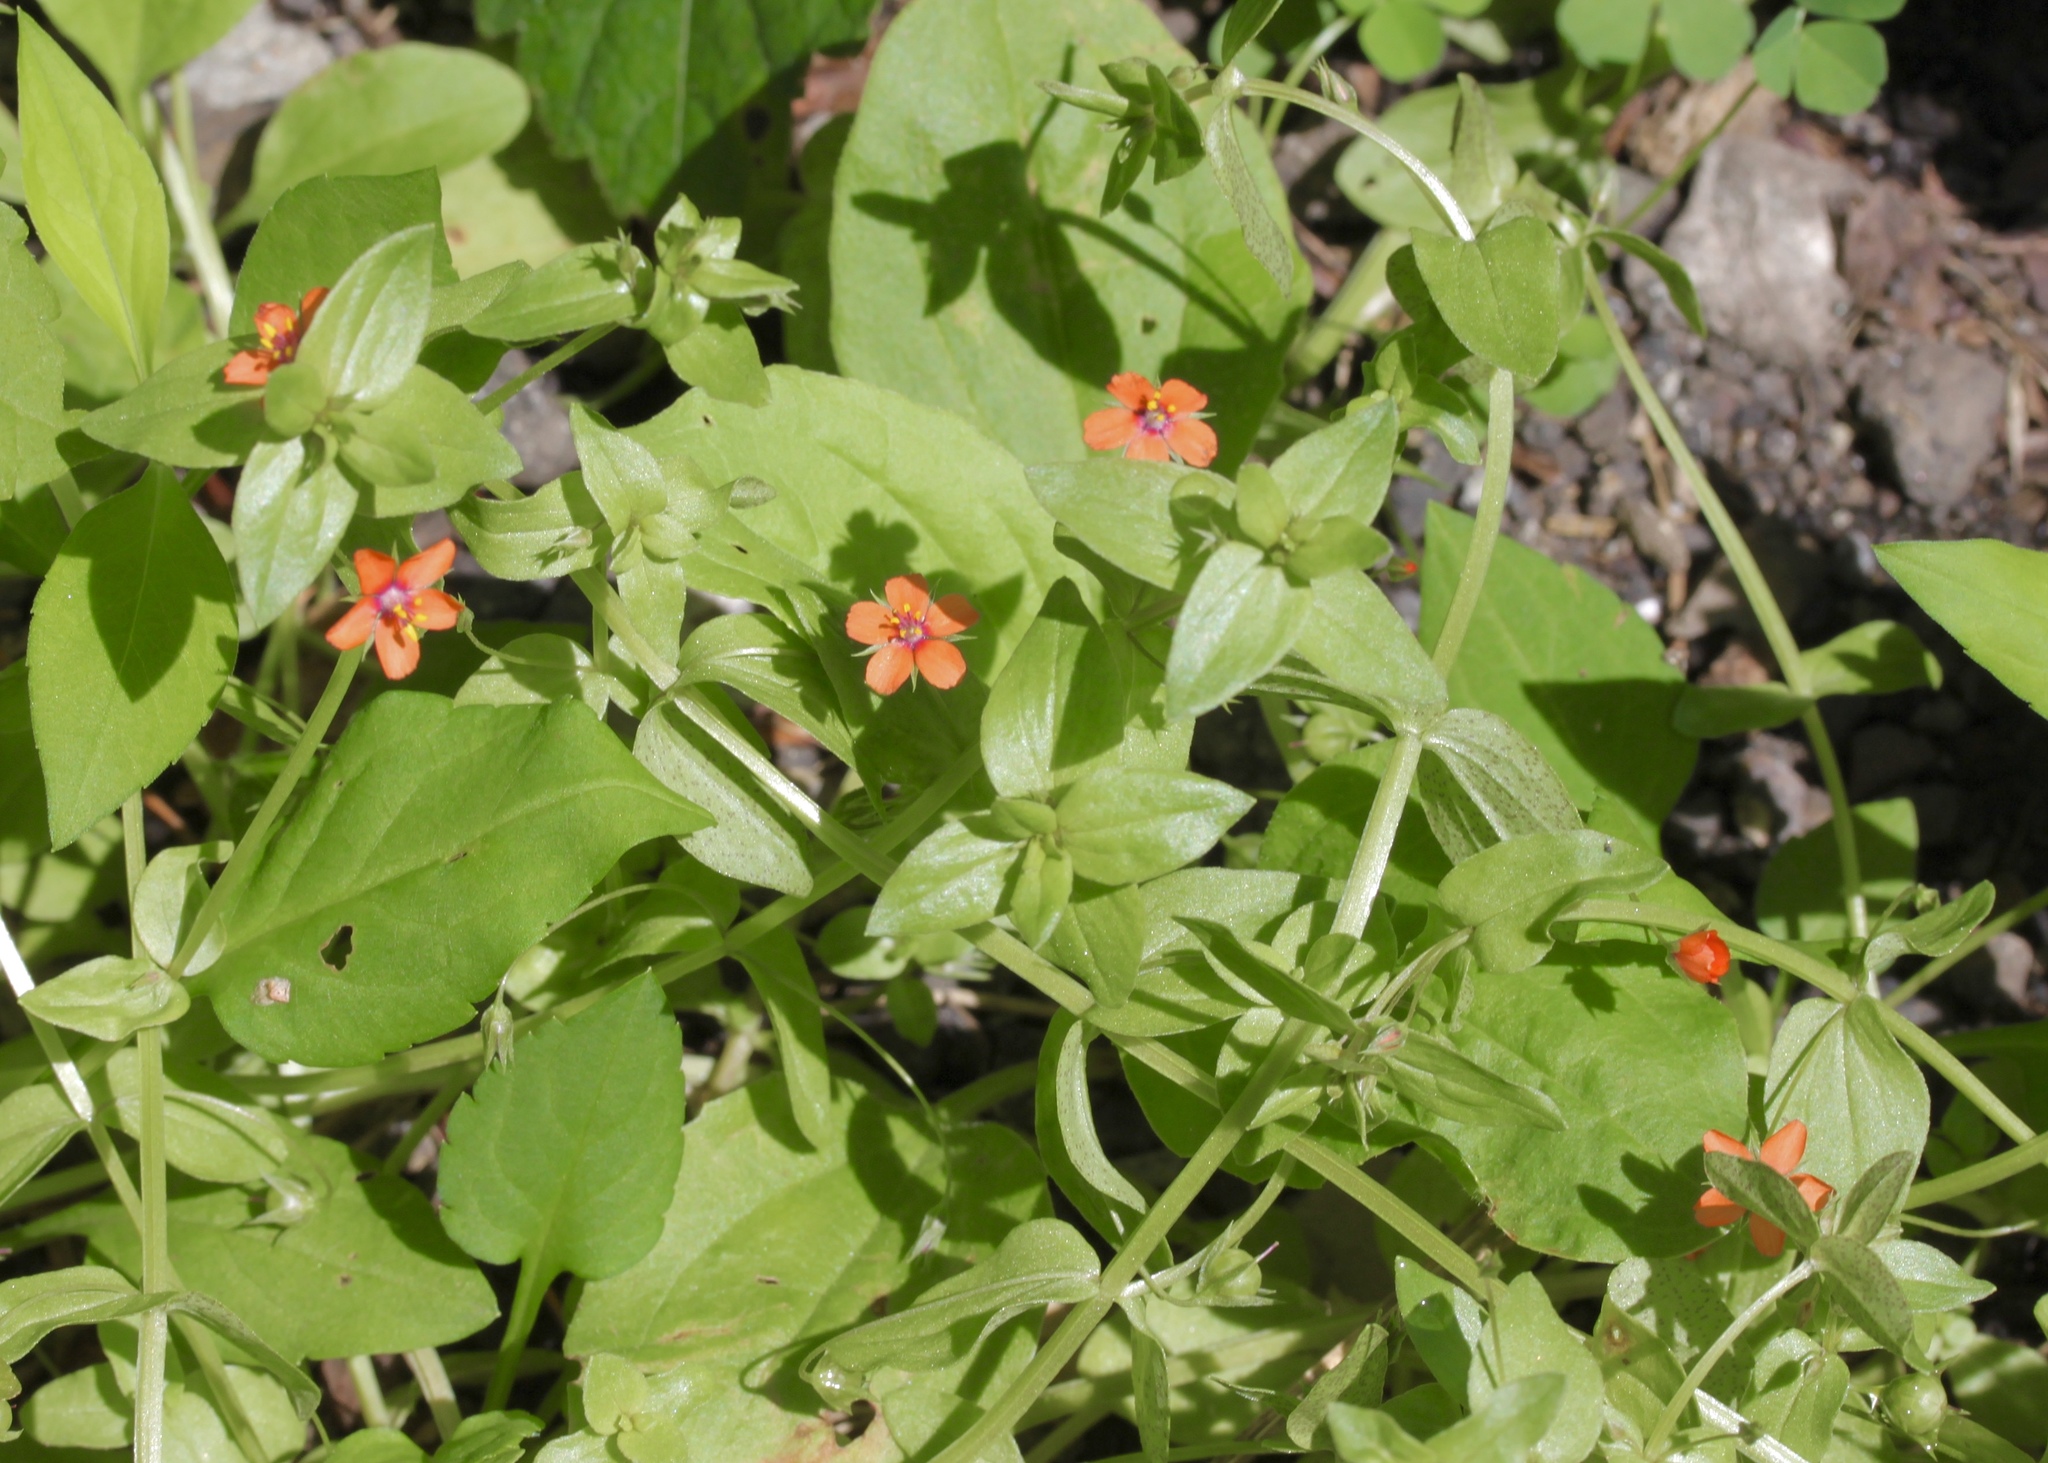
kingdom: Plantae
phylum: Tracheophyta
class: Magnoliopsida
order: Ericales
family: Primulaceae
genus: Lysimachia
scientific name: Lysimachia arvensis
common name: Scarlet pimpernel
